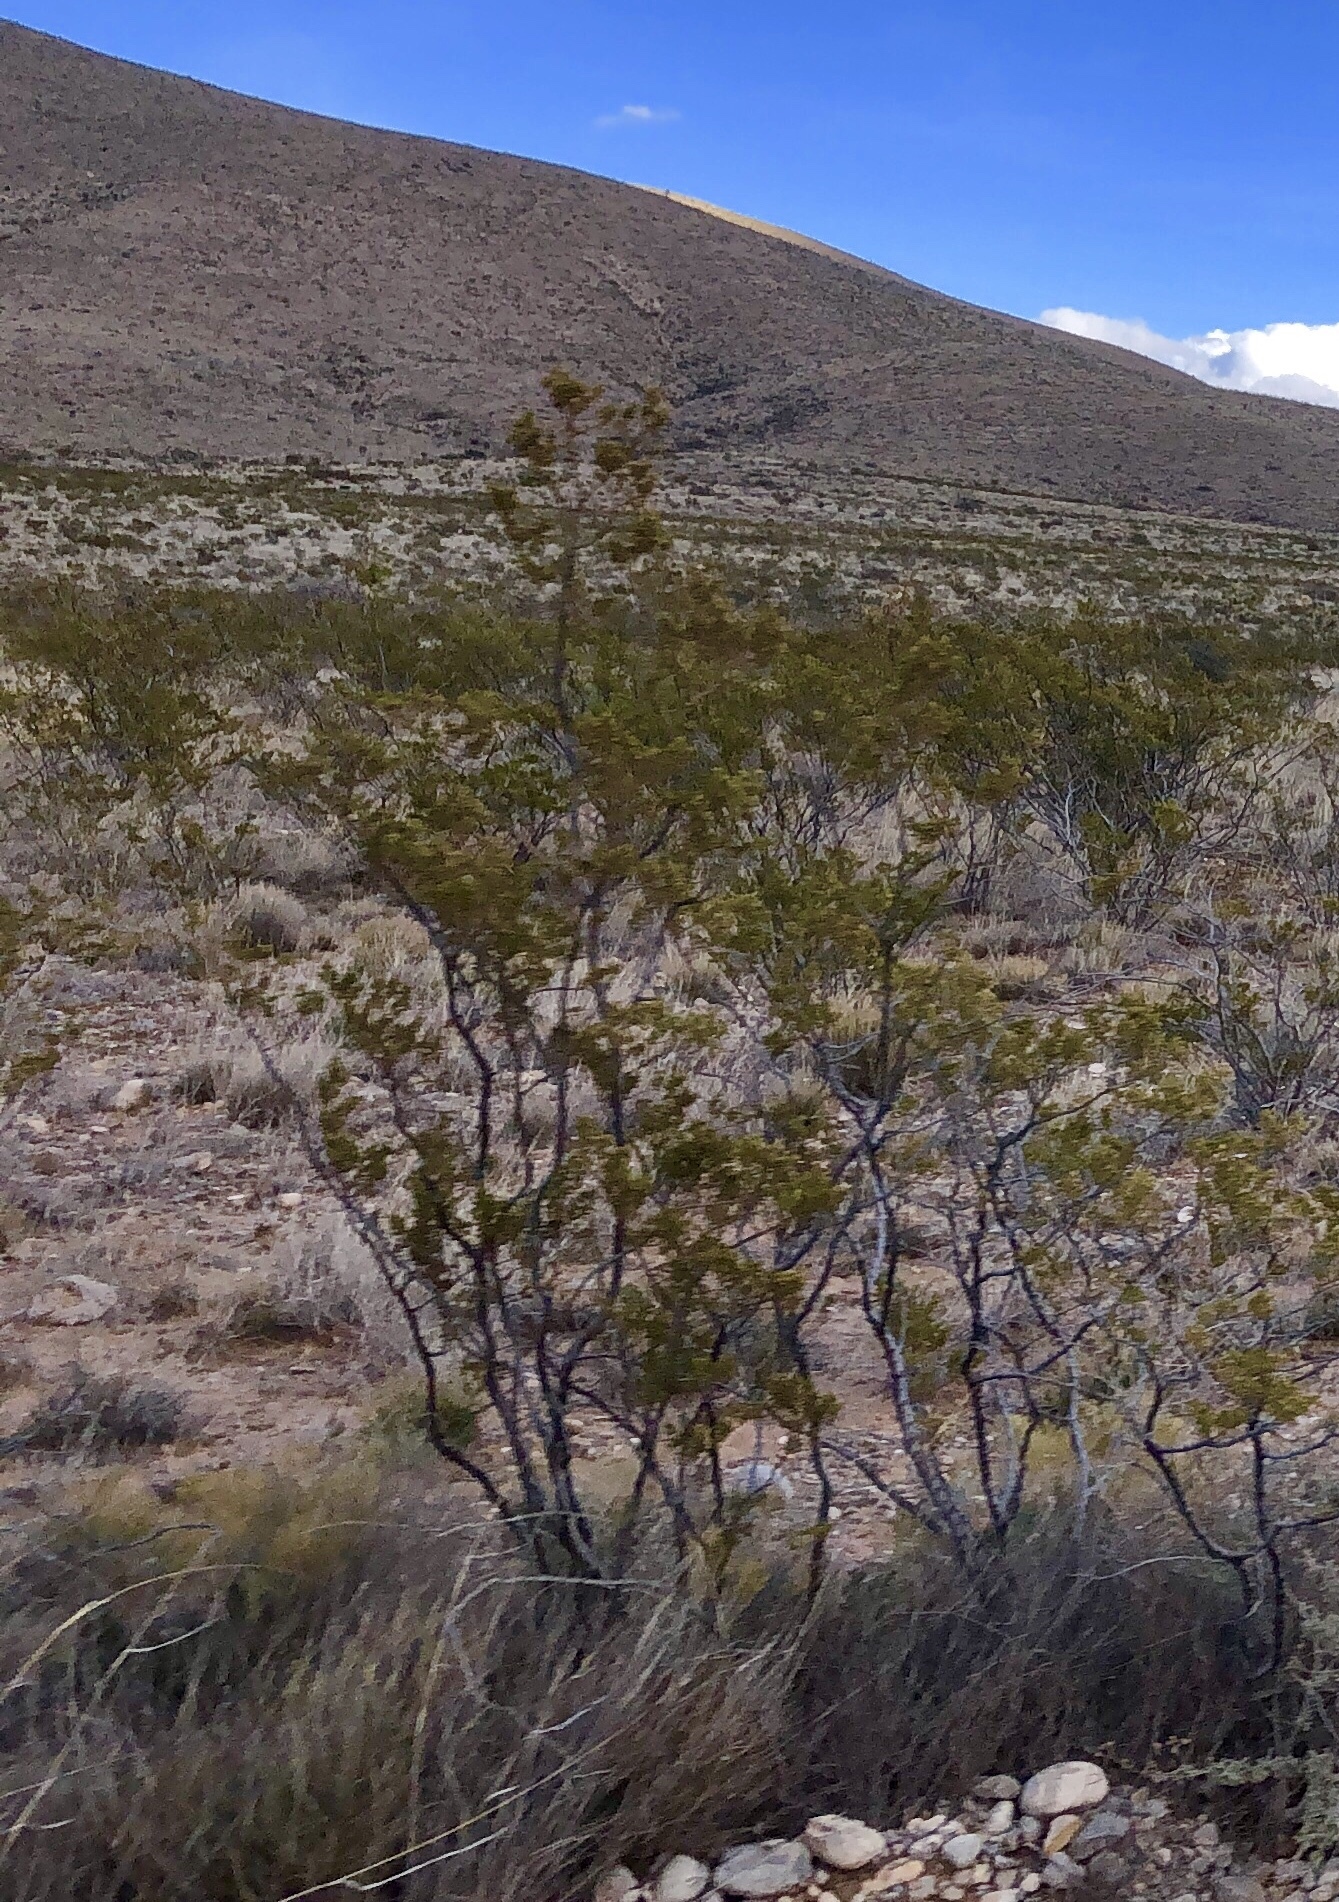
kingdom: Plantae
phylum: Tracheophyta
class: Magnoliopsida
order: Zygophyllales
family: Zygophyllaceae
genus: Larrea
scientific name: Larrea tridentata
